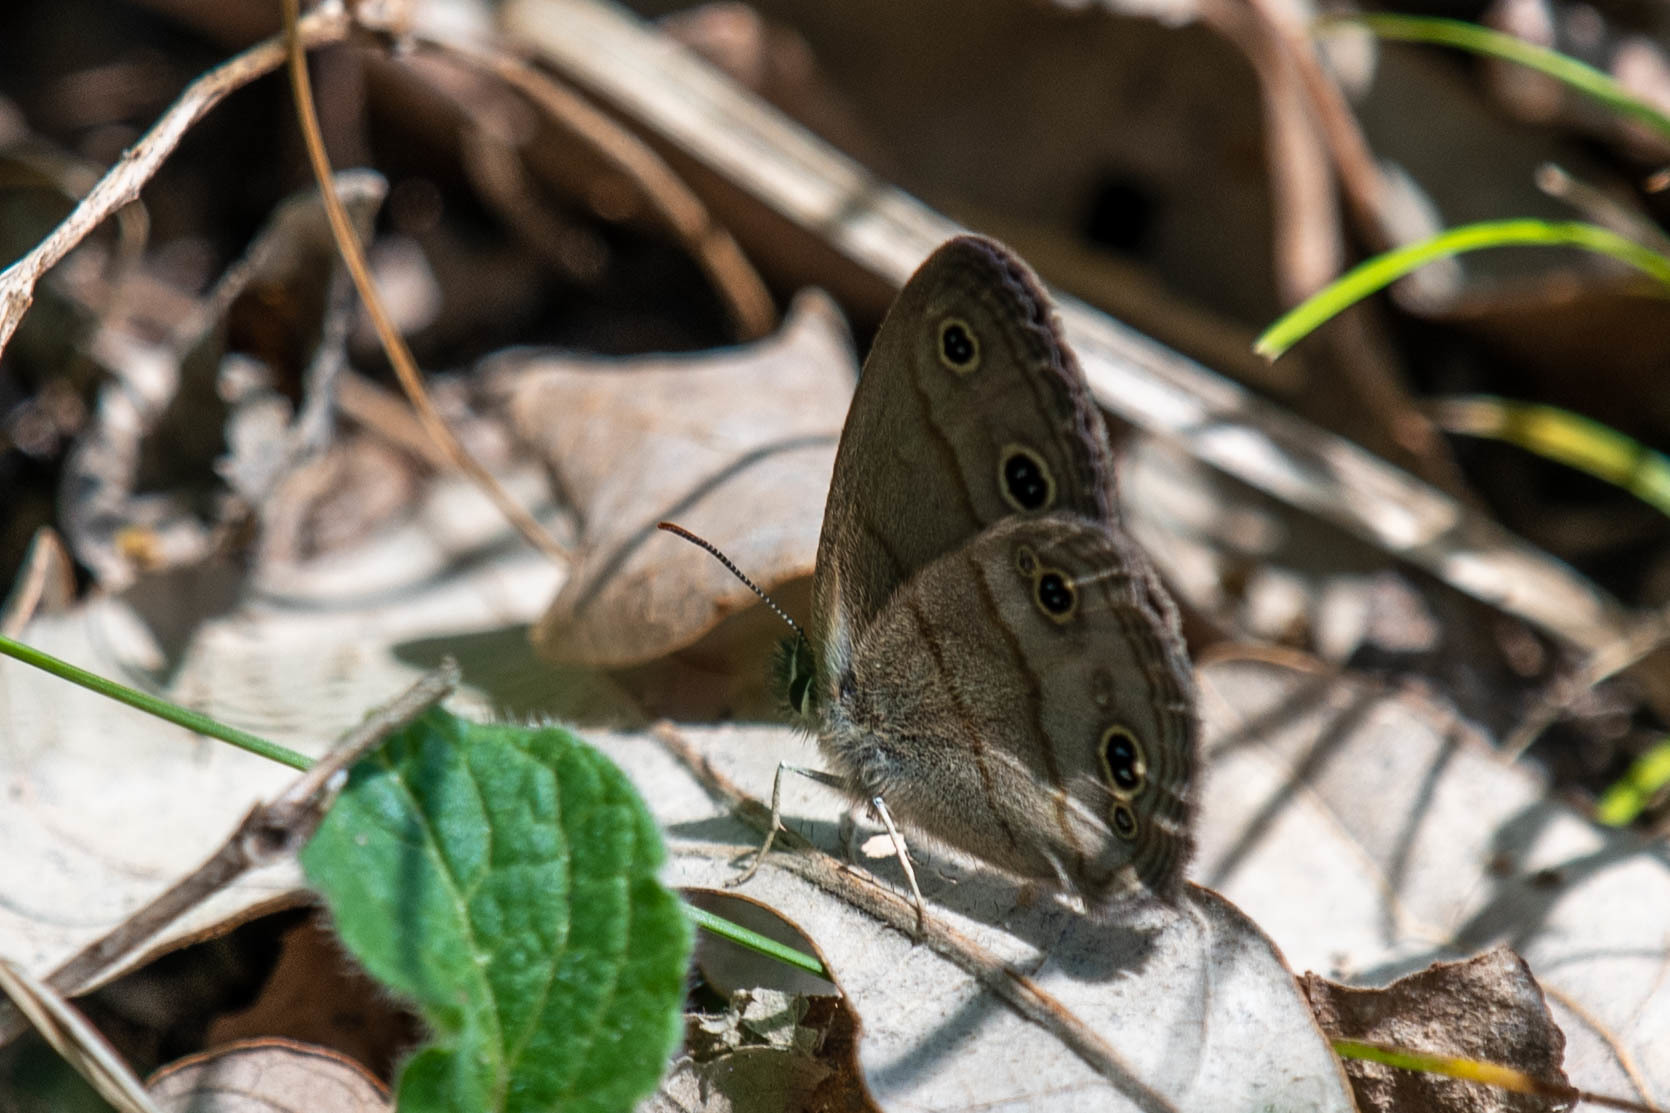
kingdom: Animalia
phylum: Arthropoda
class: Insecta
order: Lepidoptera
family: Nymphalidae
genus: Euptychia
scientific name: Euptychia cymela
